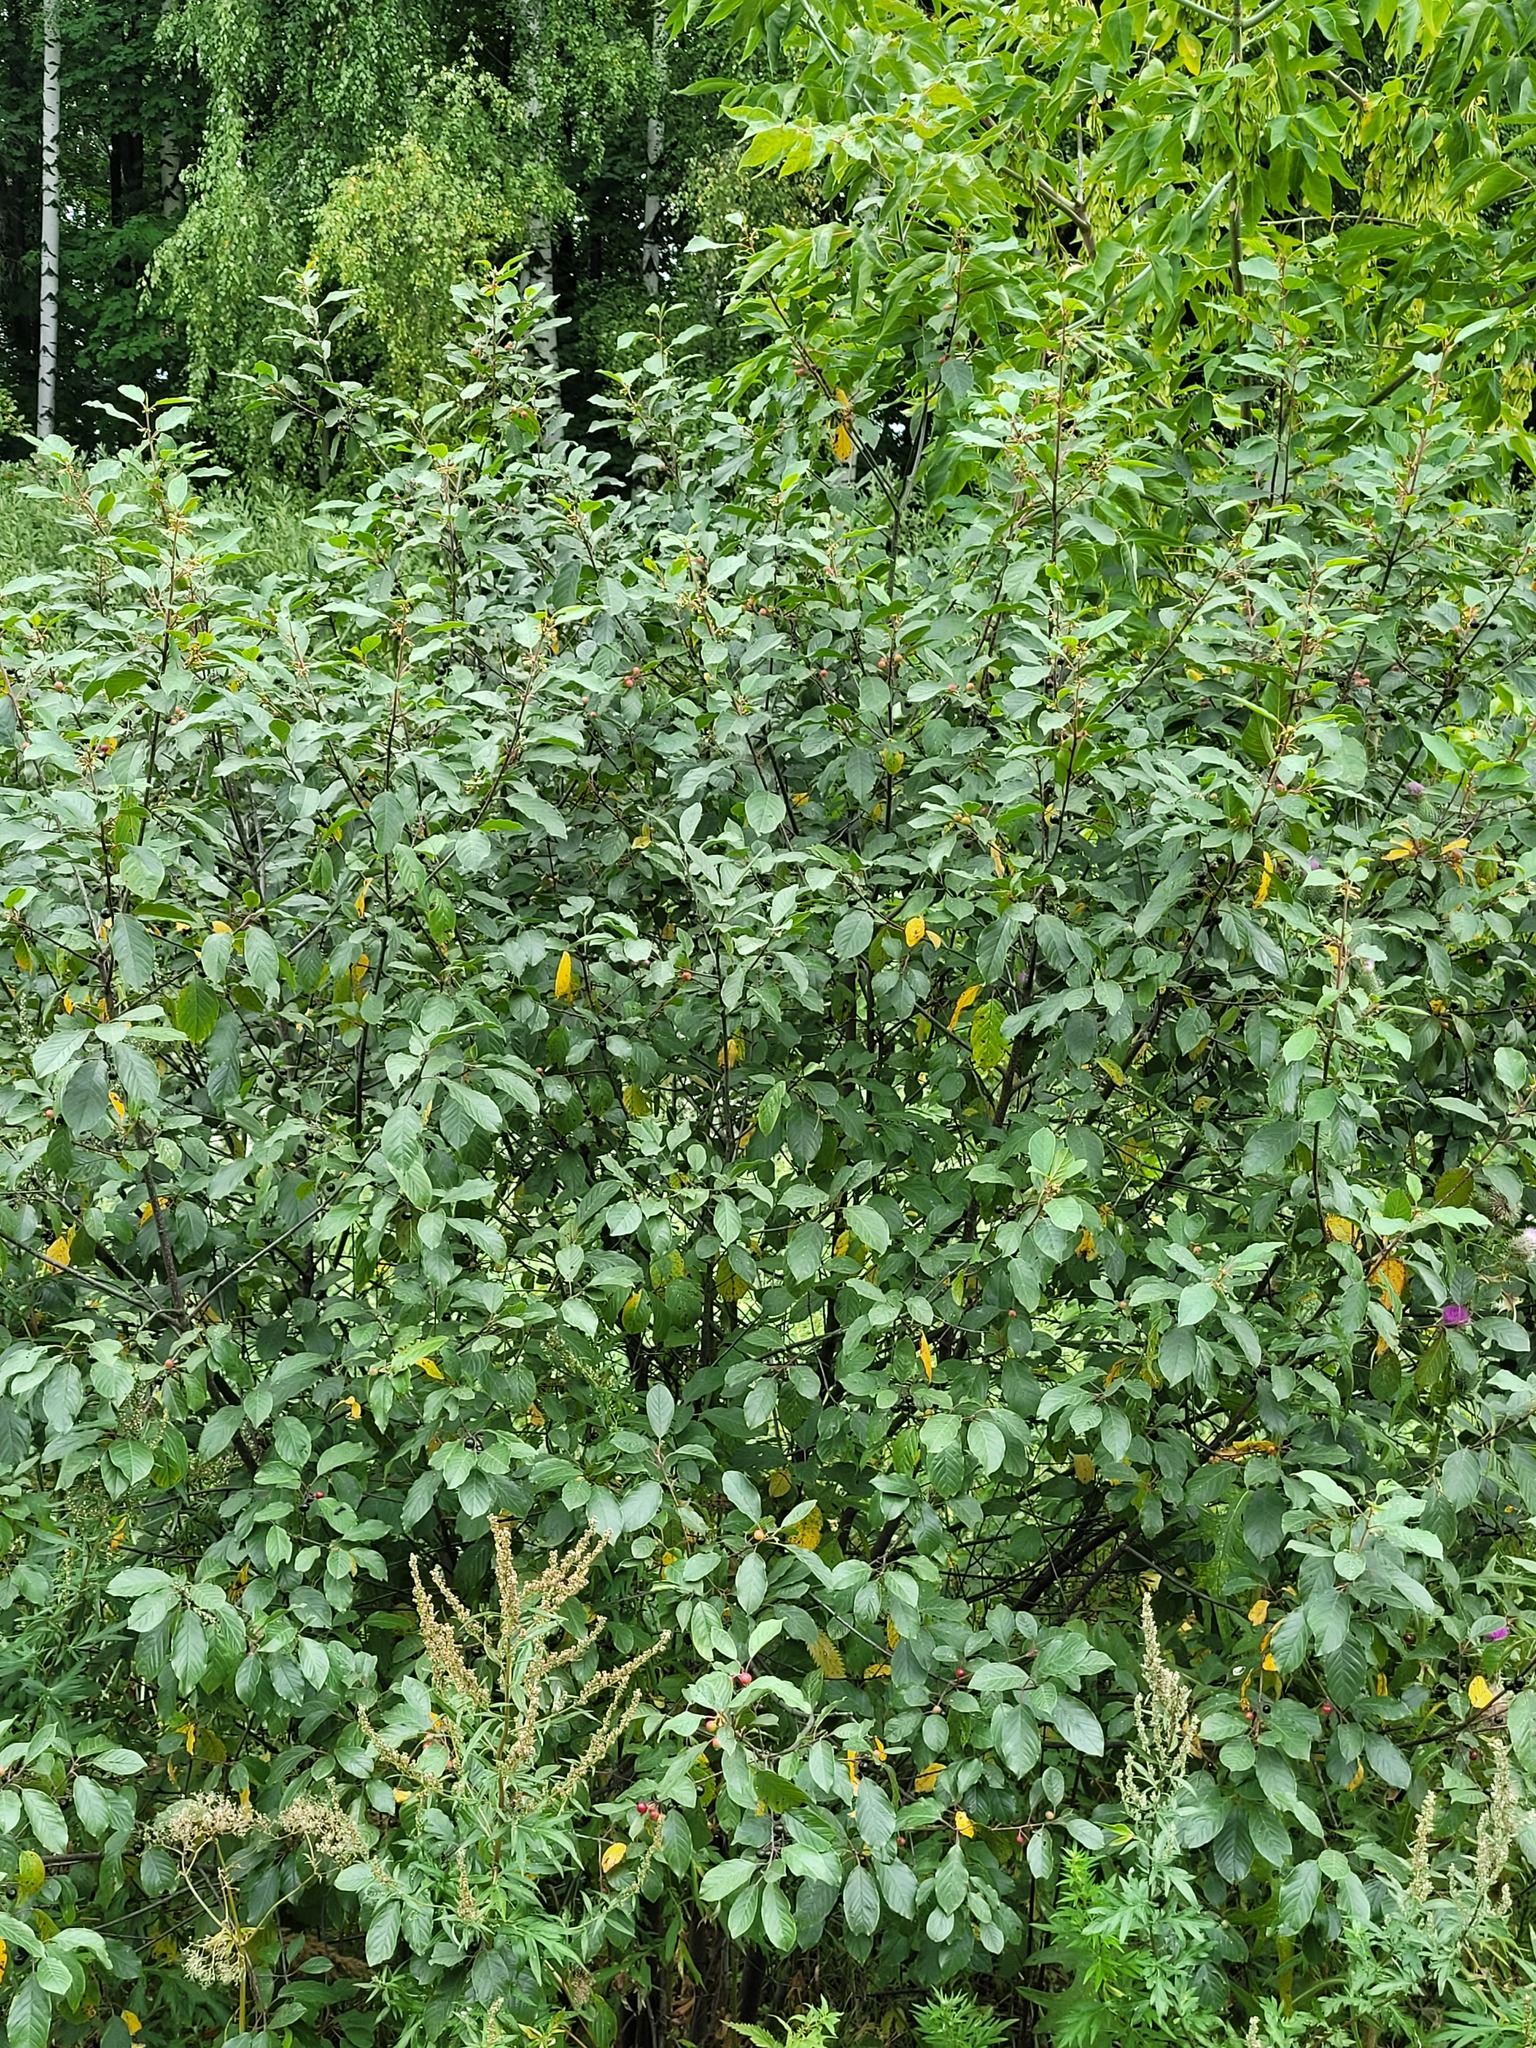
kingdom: Plantae
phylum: Tracheophyta
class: Magnoliopsida
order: Rosales
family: Rhamnaceae
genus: Frangula
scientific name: Frangula alnus
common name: Alder buckthorn
